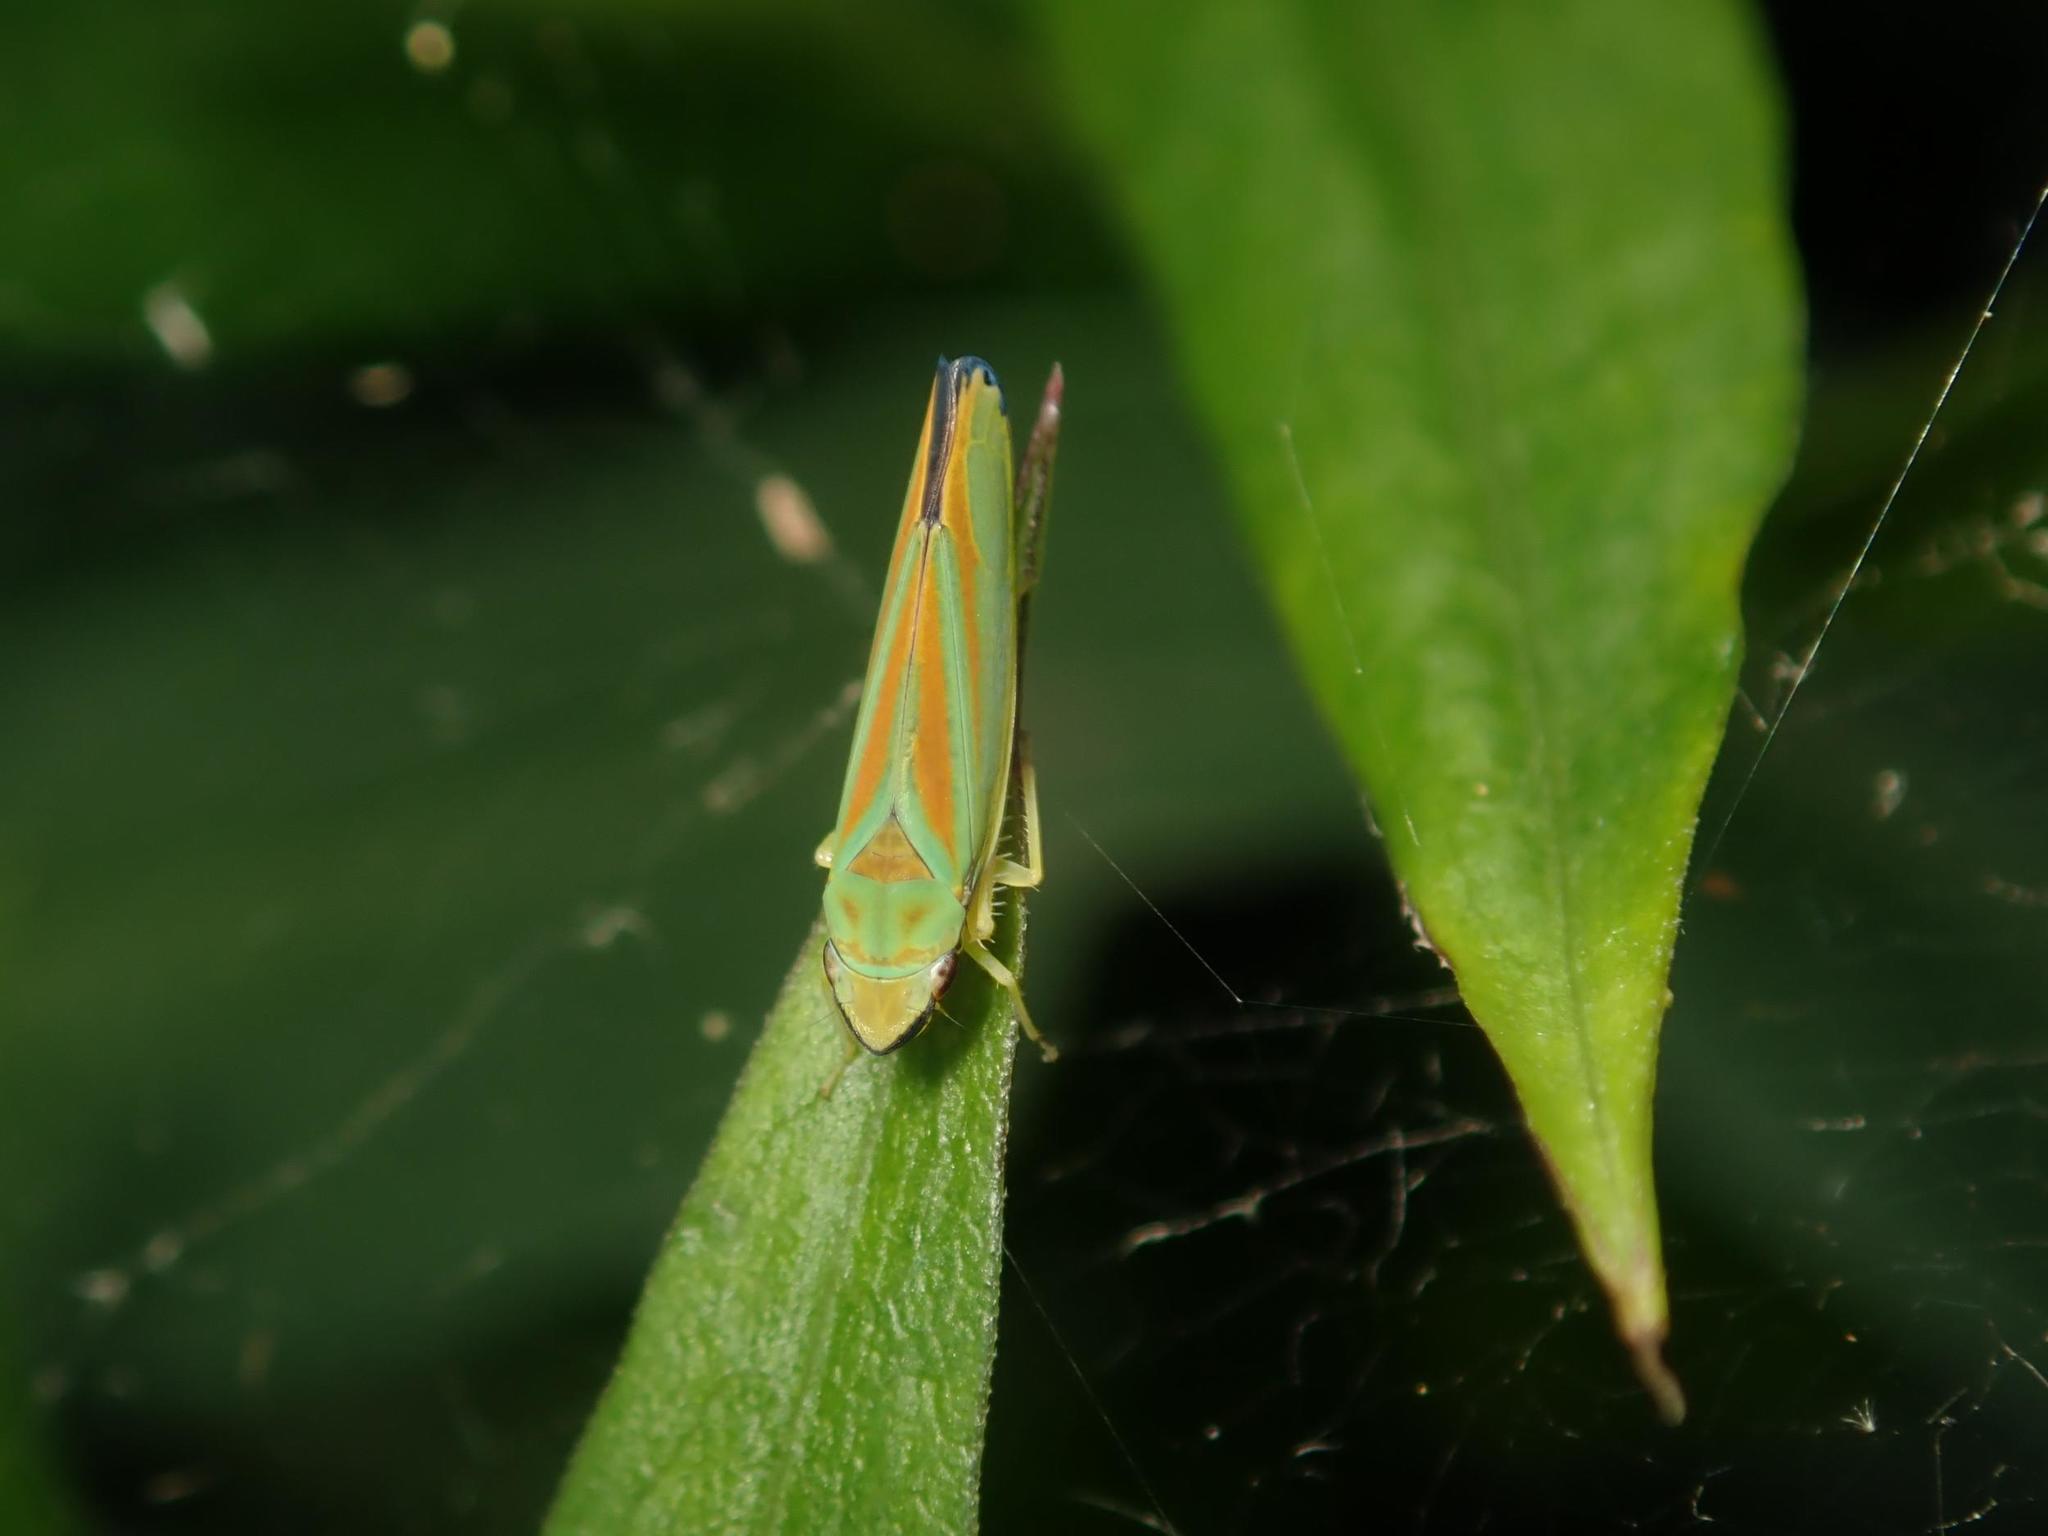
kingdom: Animalia
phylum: Arthropoda
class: Insecta
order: Hemiptera
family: Cicadellidae
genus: Graphocephala
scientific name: Graphocephala fennahi
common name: Rhododendron leafhopper
